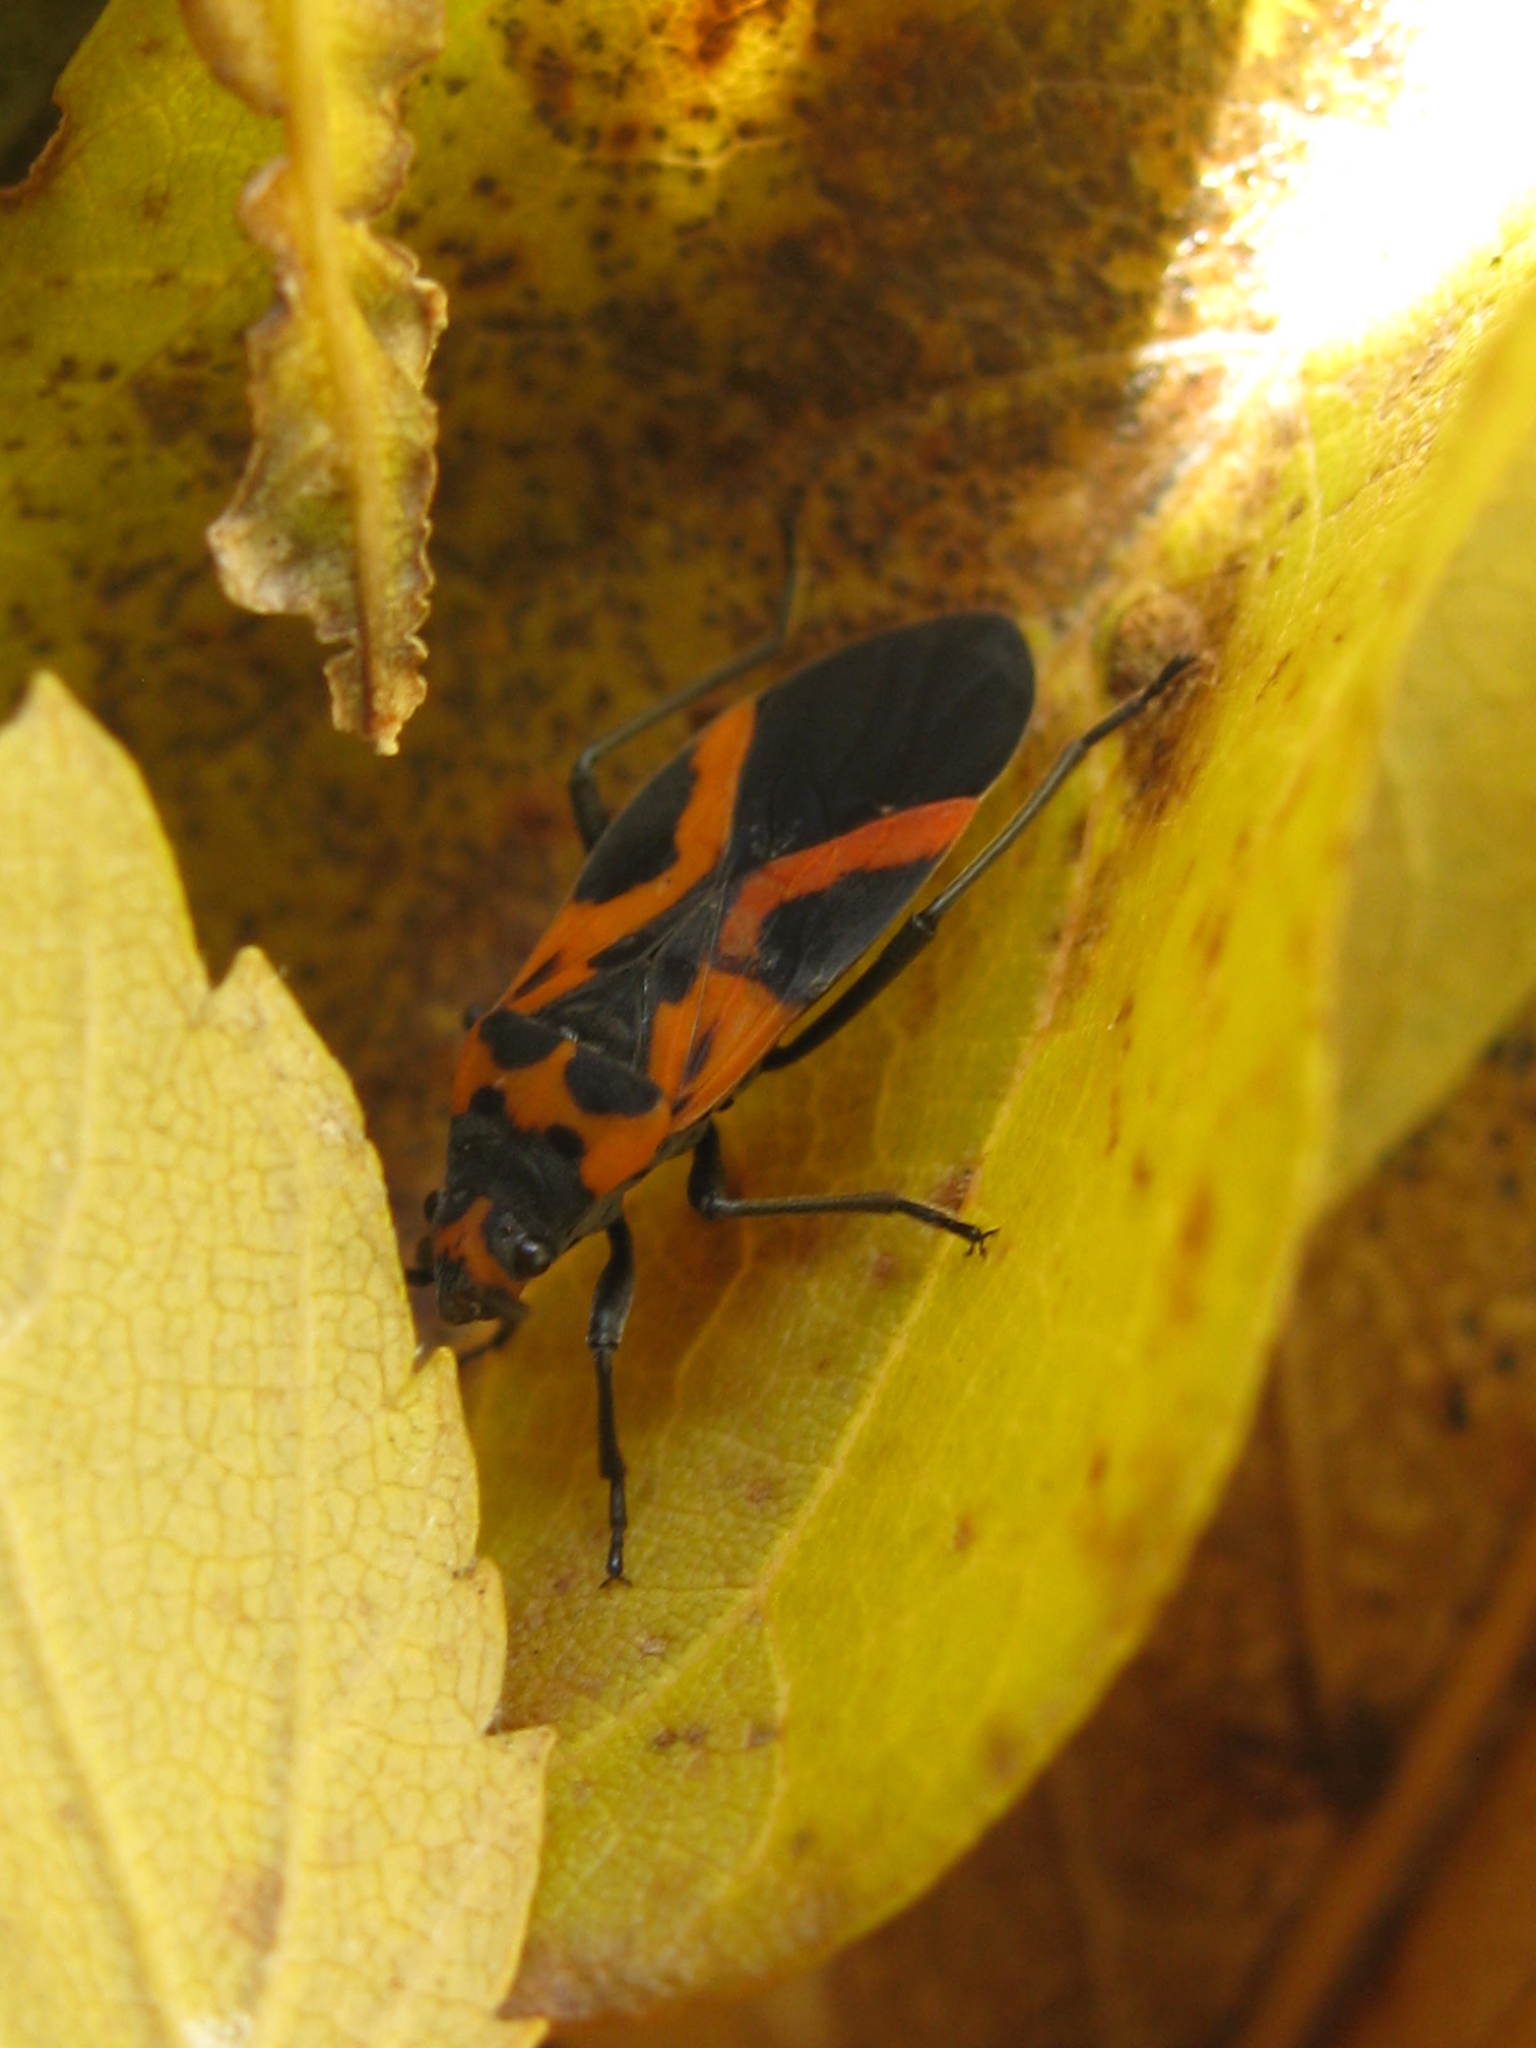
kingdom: Animalia
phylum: Arthropoda
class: Insecta
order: Hemiptera
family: Lygaeidae
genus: Lygaeus
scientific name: Lygaeus turcicus
